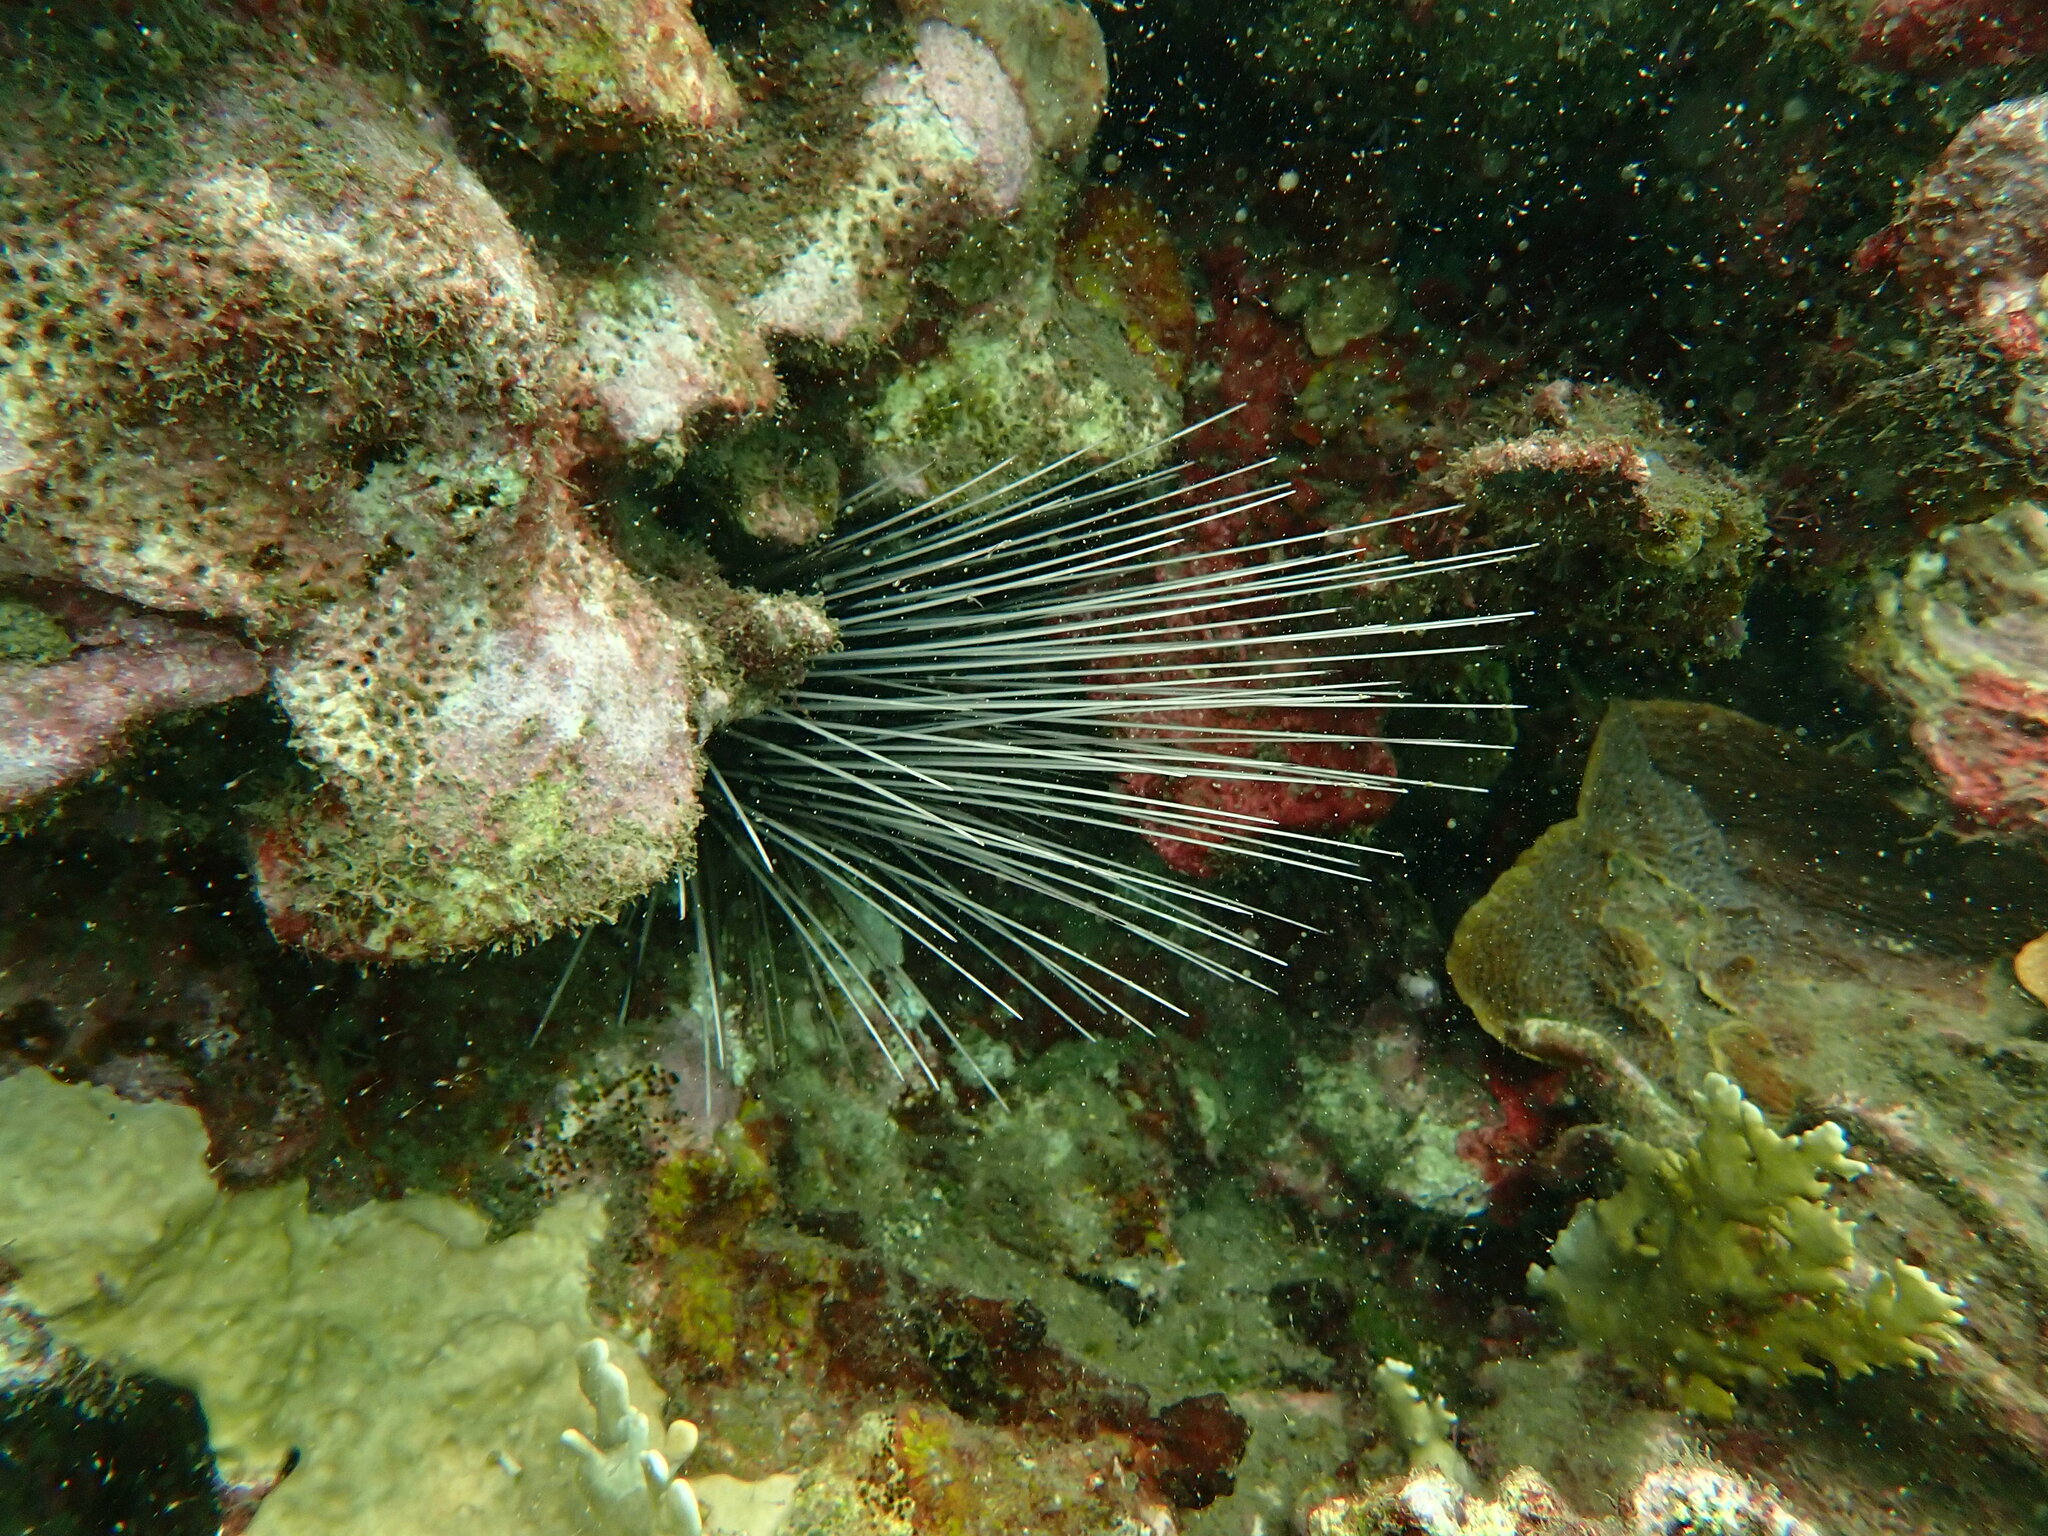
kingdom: Animalia
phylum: Echinodermata
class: Echinoidea
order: Diadematoida
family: Diadematidae
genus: Diadema
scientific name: Diadema antillarum
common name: Spiny urchin
